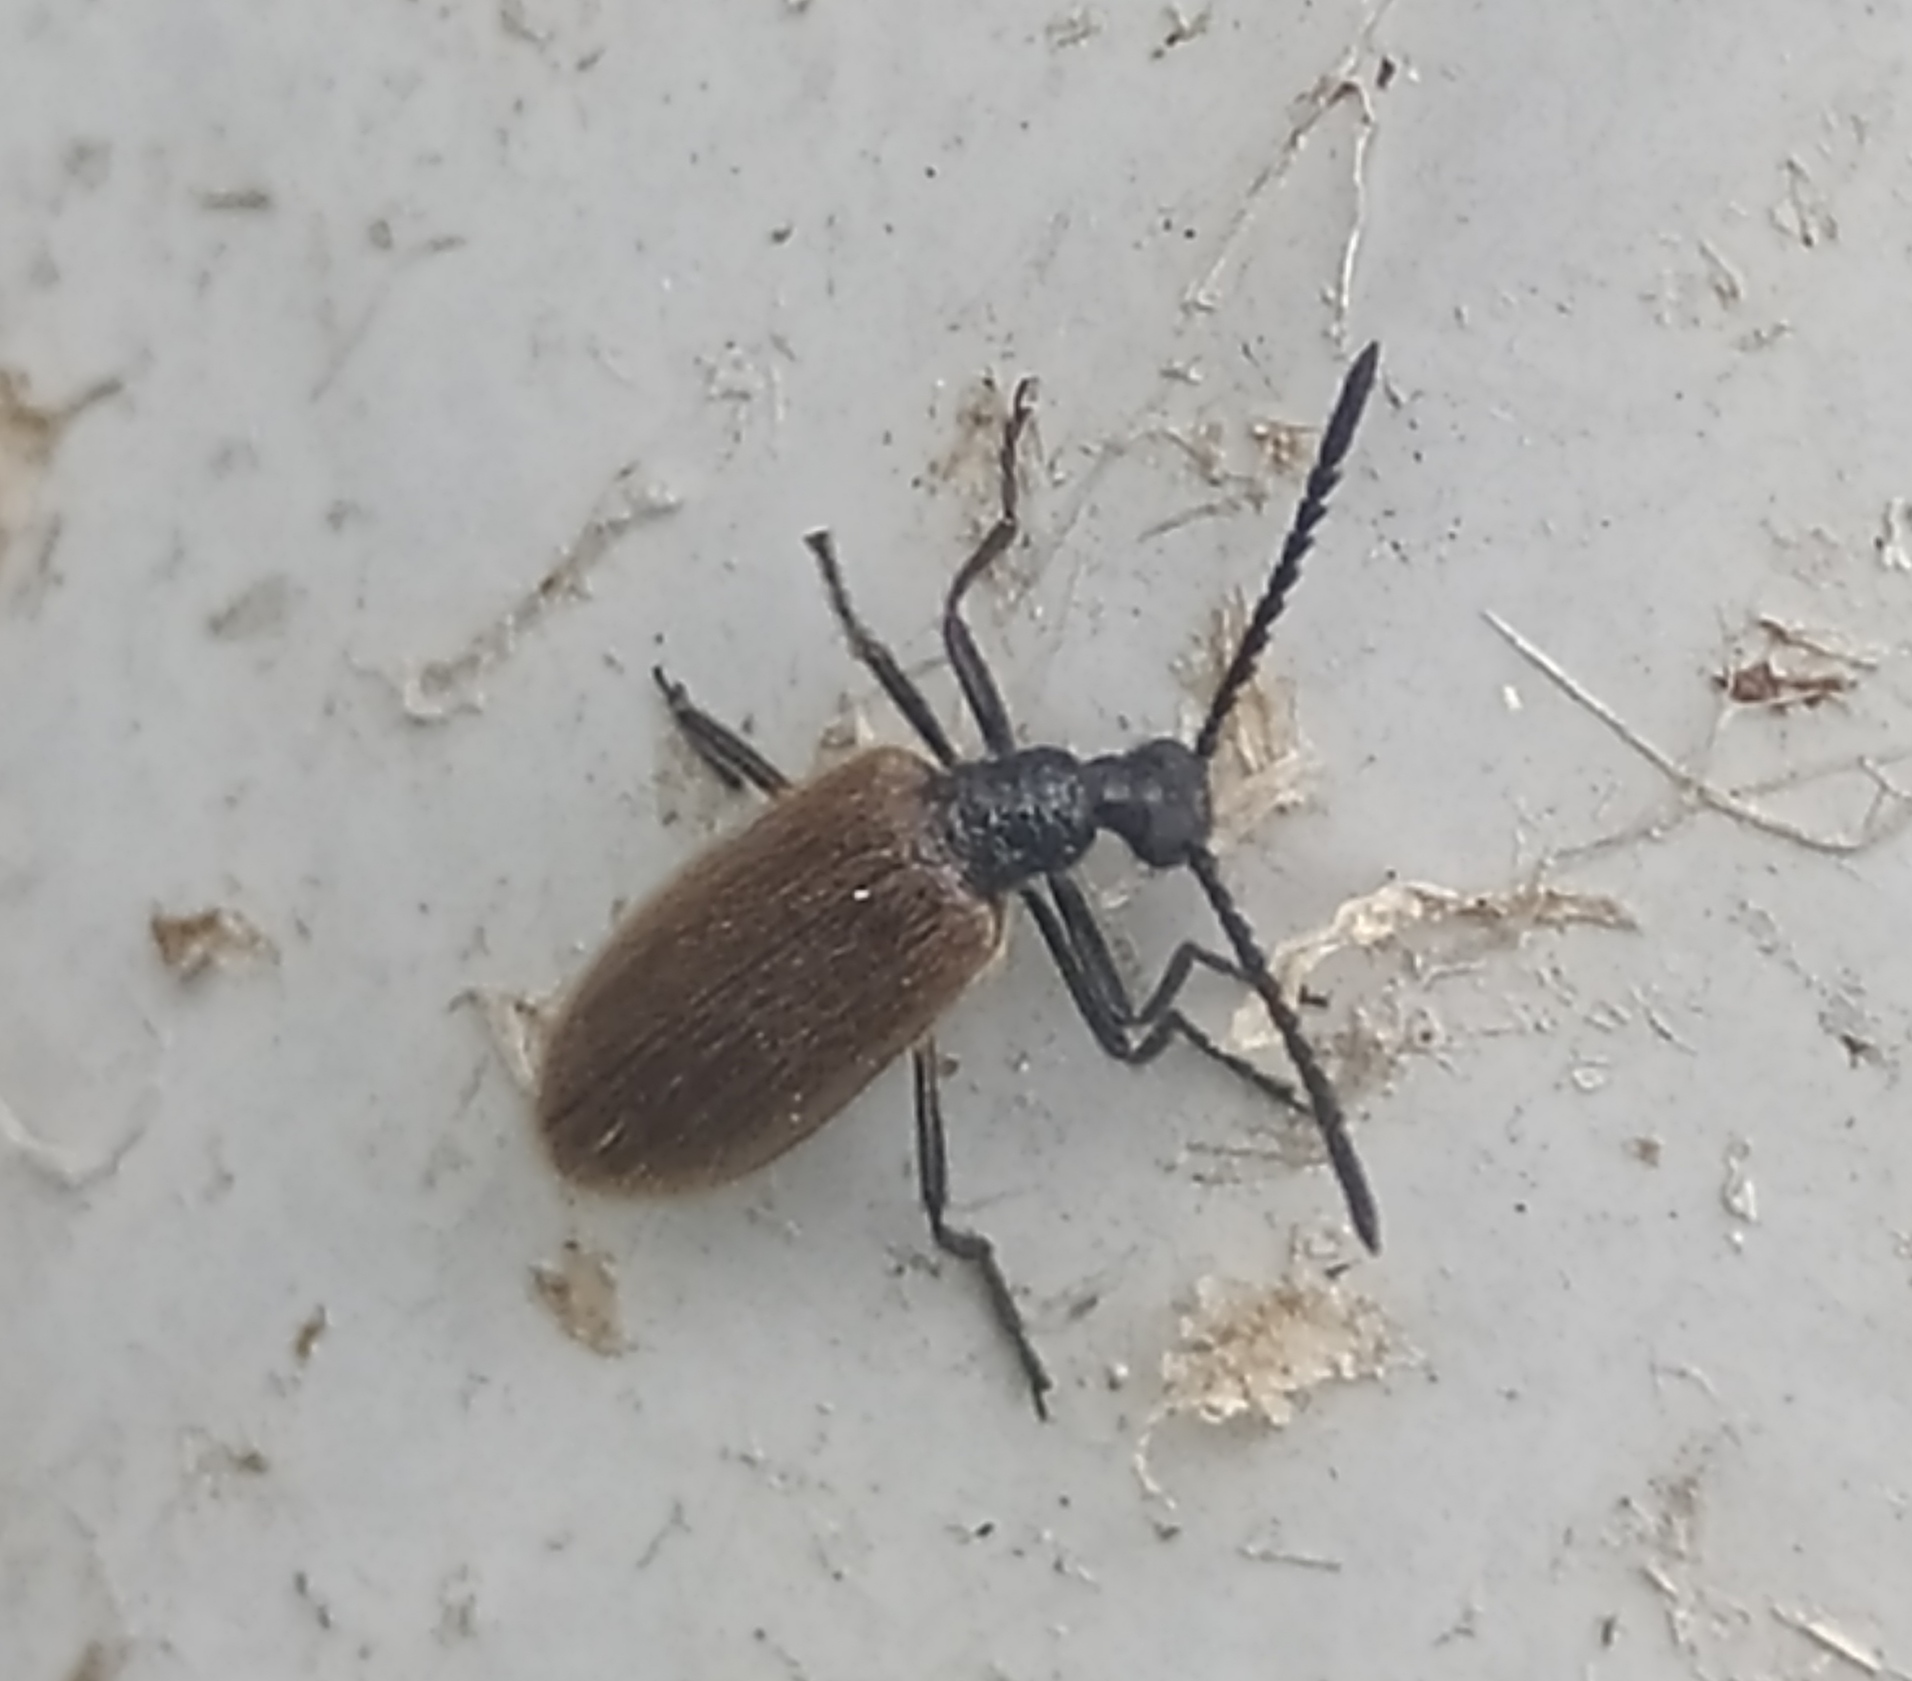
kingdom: Animalia
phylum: Arthropoda
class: Insecta
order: Coleoptera
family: Tenebrionidae
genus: Lagria
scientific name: Lagria hirta
